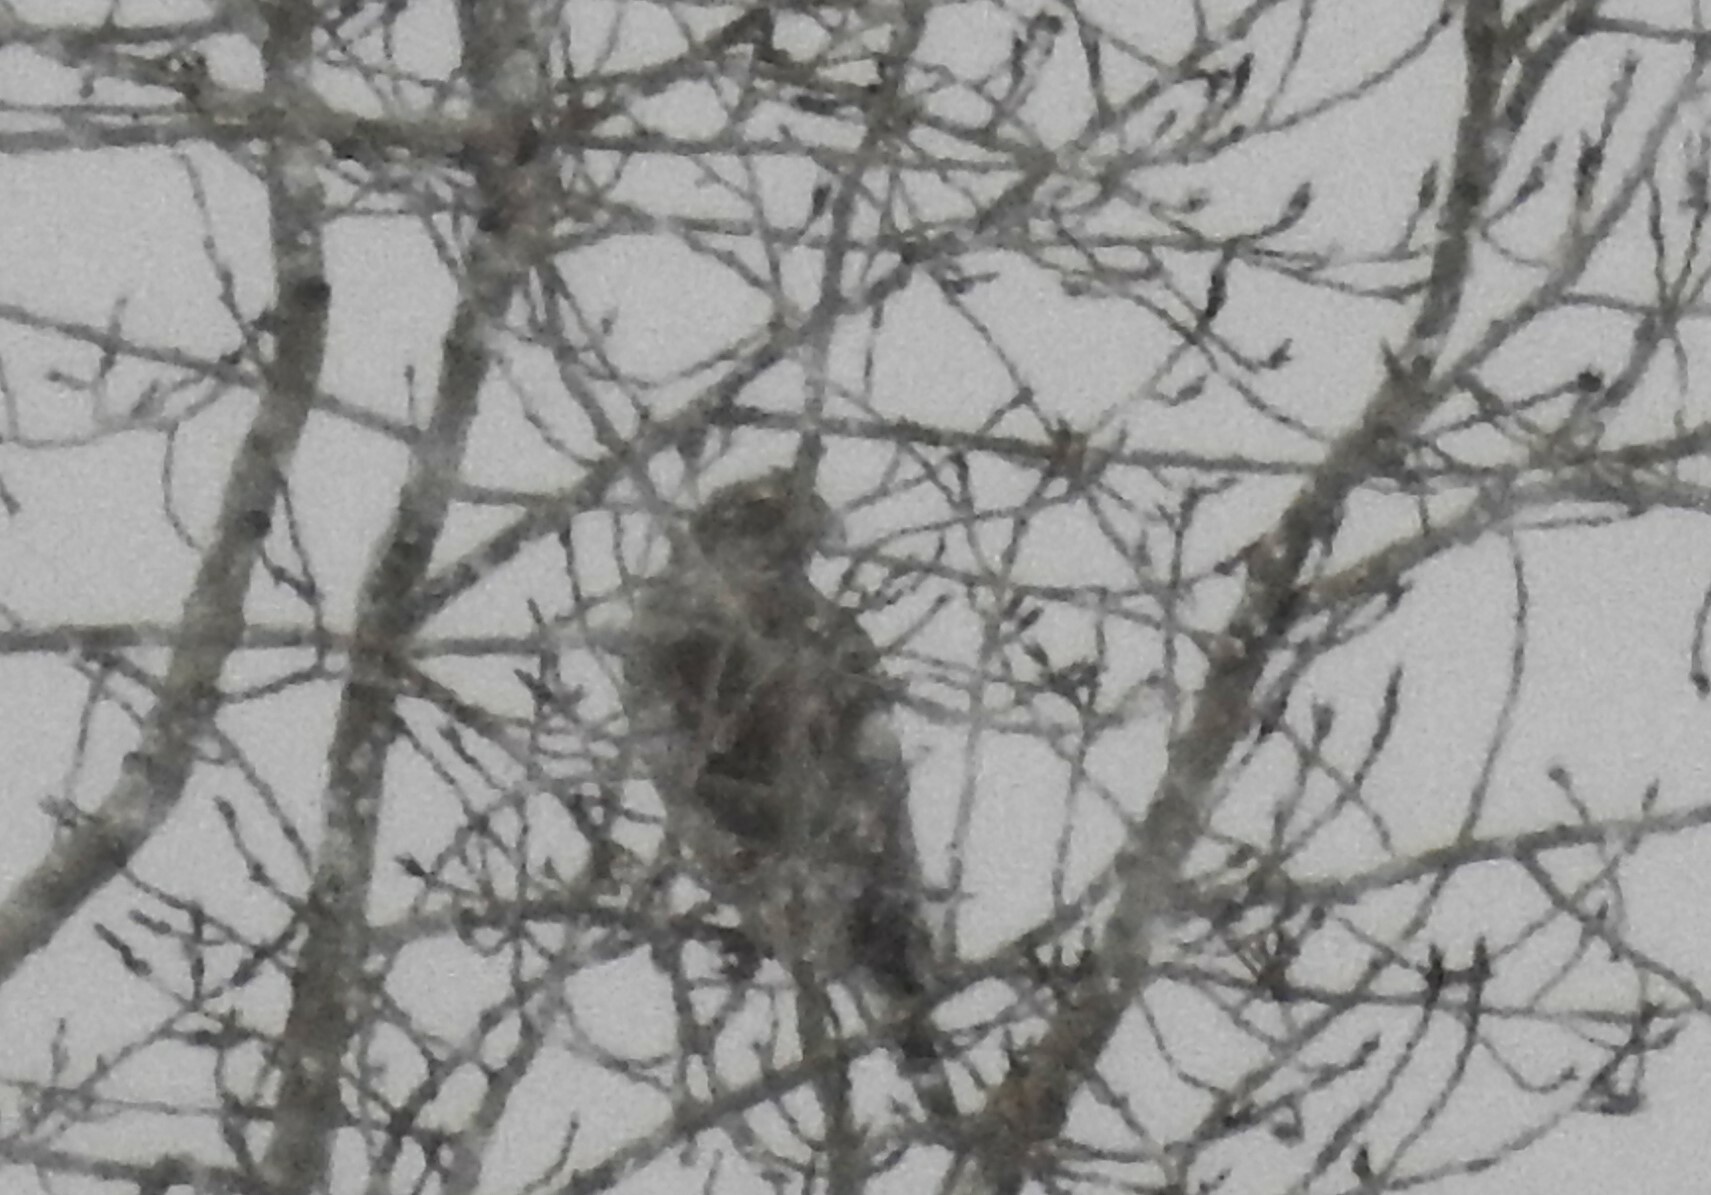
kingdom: Animalia
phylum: Chordata
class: Aves
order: Accipitriformes
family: Accipitridae
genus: Accipiter
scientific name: Accipiter gentilis
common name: Northern goshawk
